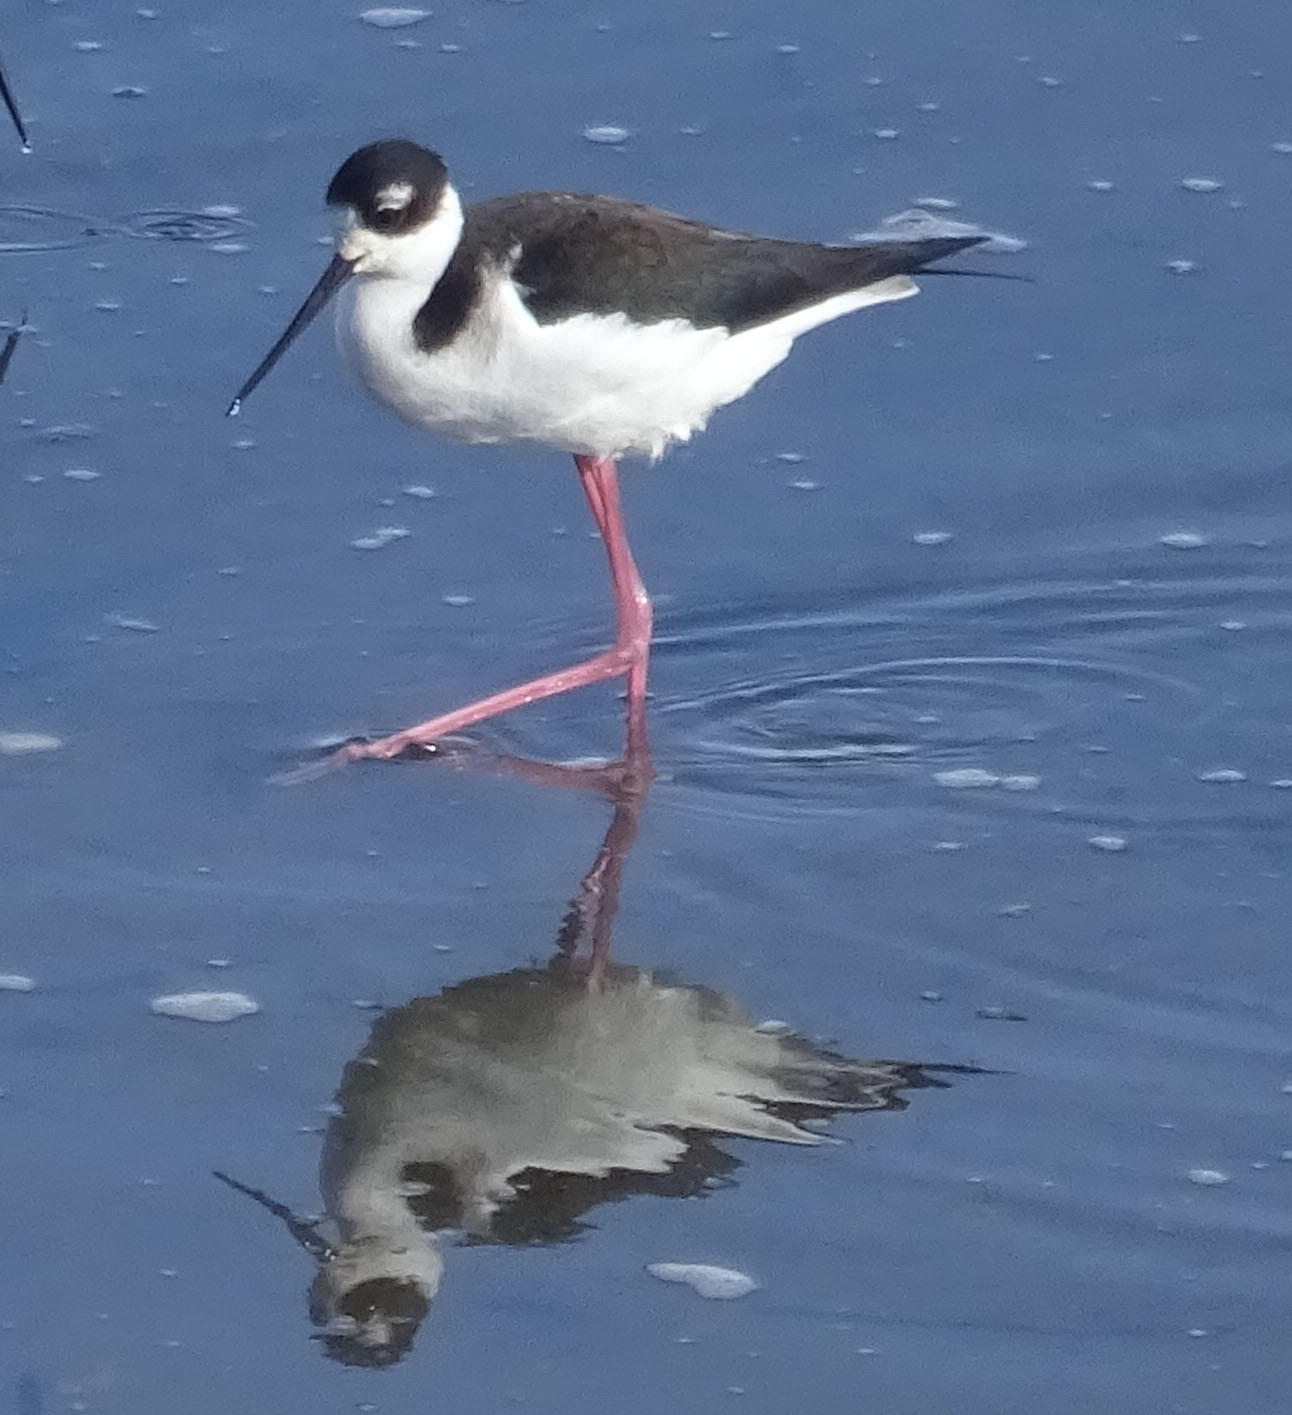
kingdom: Animalia
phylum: Chordata
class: Aves
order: Charadriiformes
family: Recurvirostridae
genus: Himantopus
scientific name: Himantopus mexicanus
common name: Black-necked stilt
